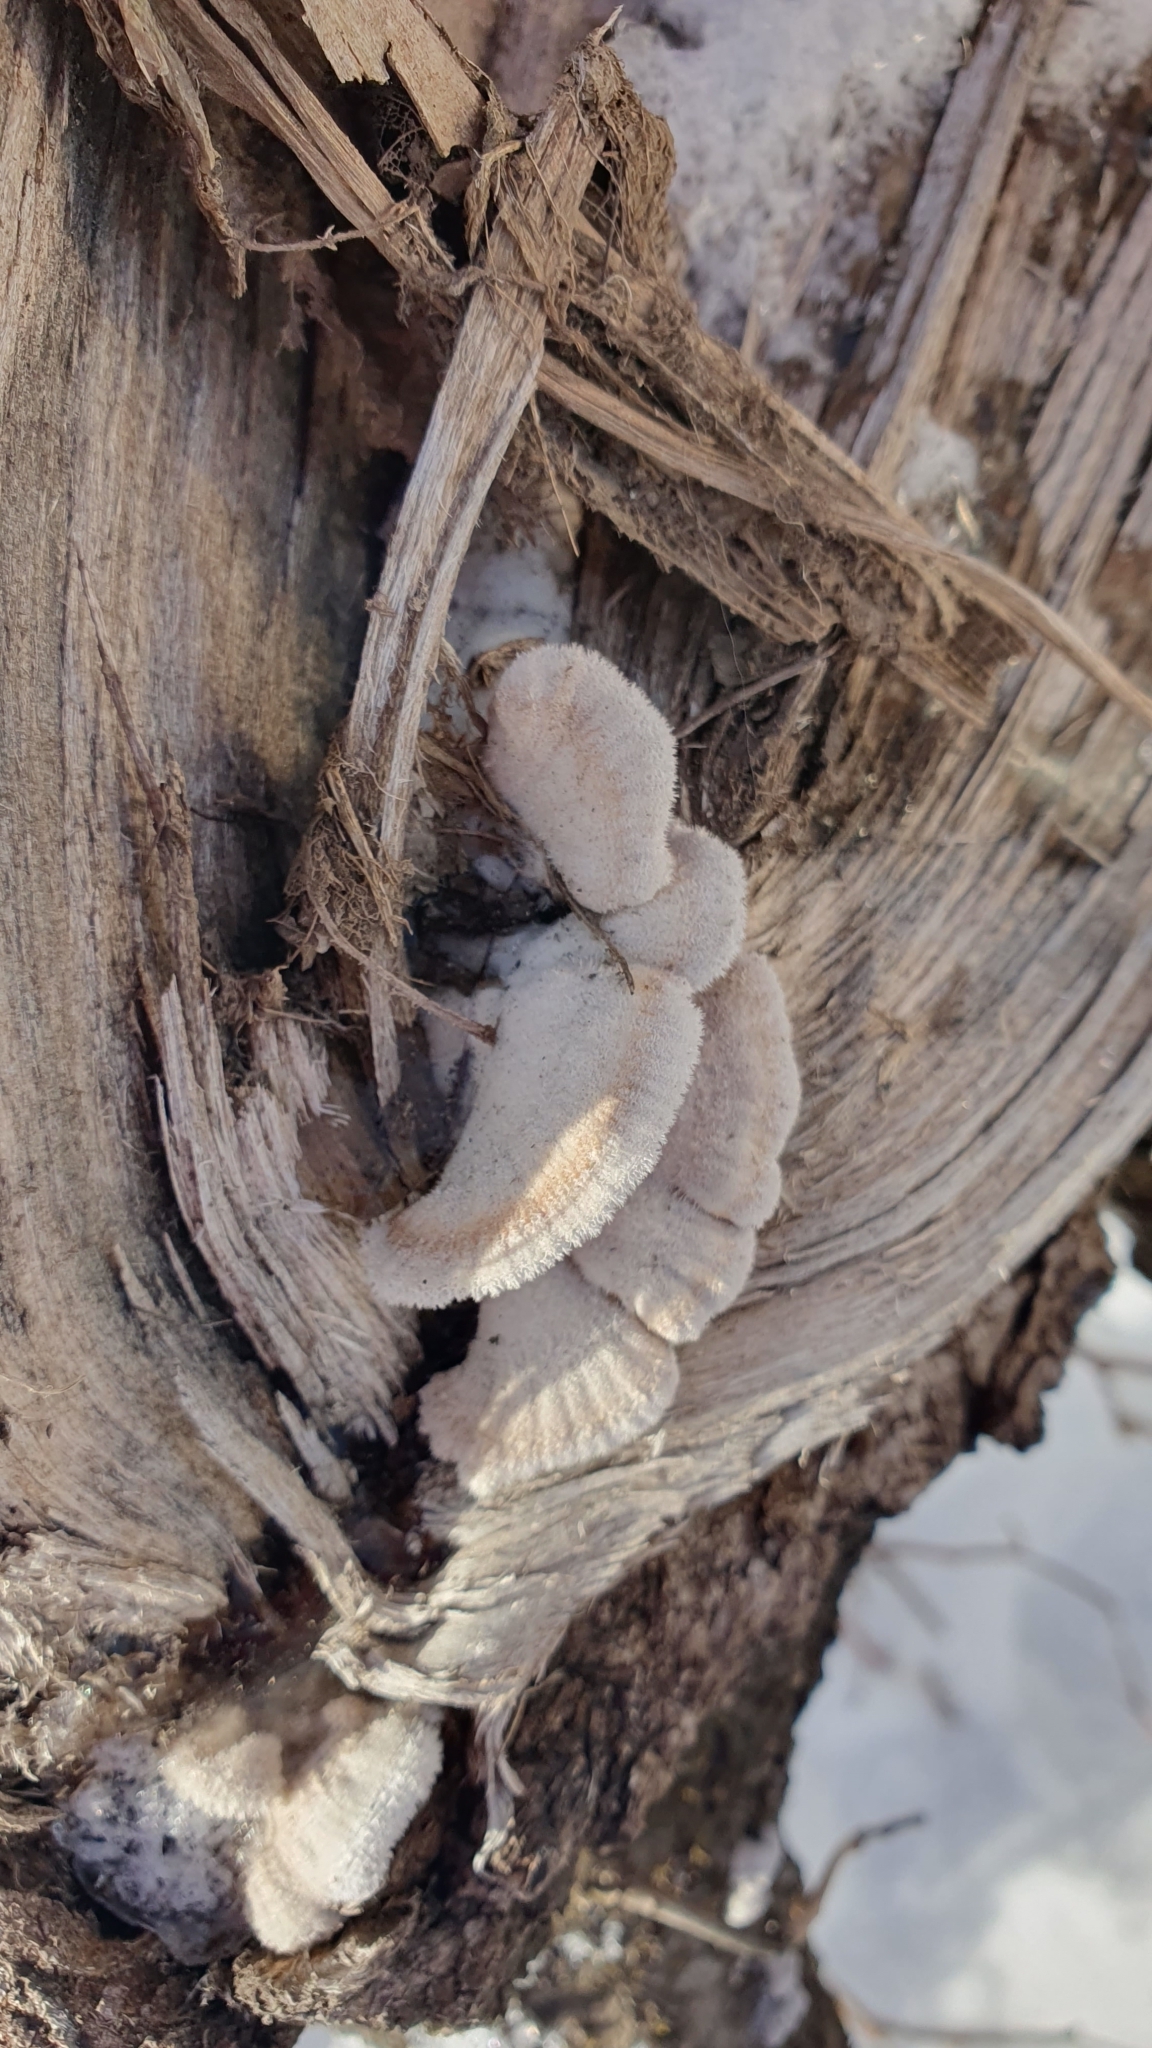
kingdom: Fungi
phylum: Basidiomycota
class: Agaricomycetes
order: Agaricales
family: Schizophyllaceae
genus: Schizophyllum
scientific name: Schizophyllum commune
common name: Common porecrust
